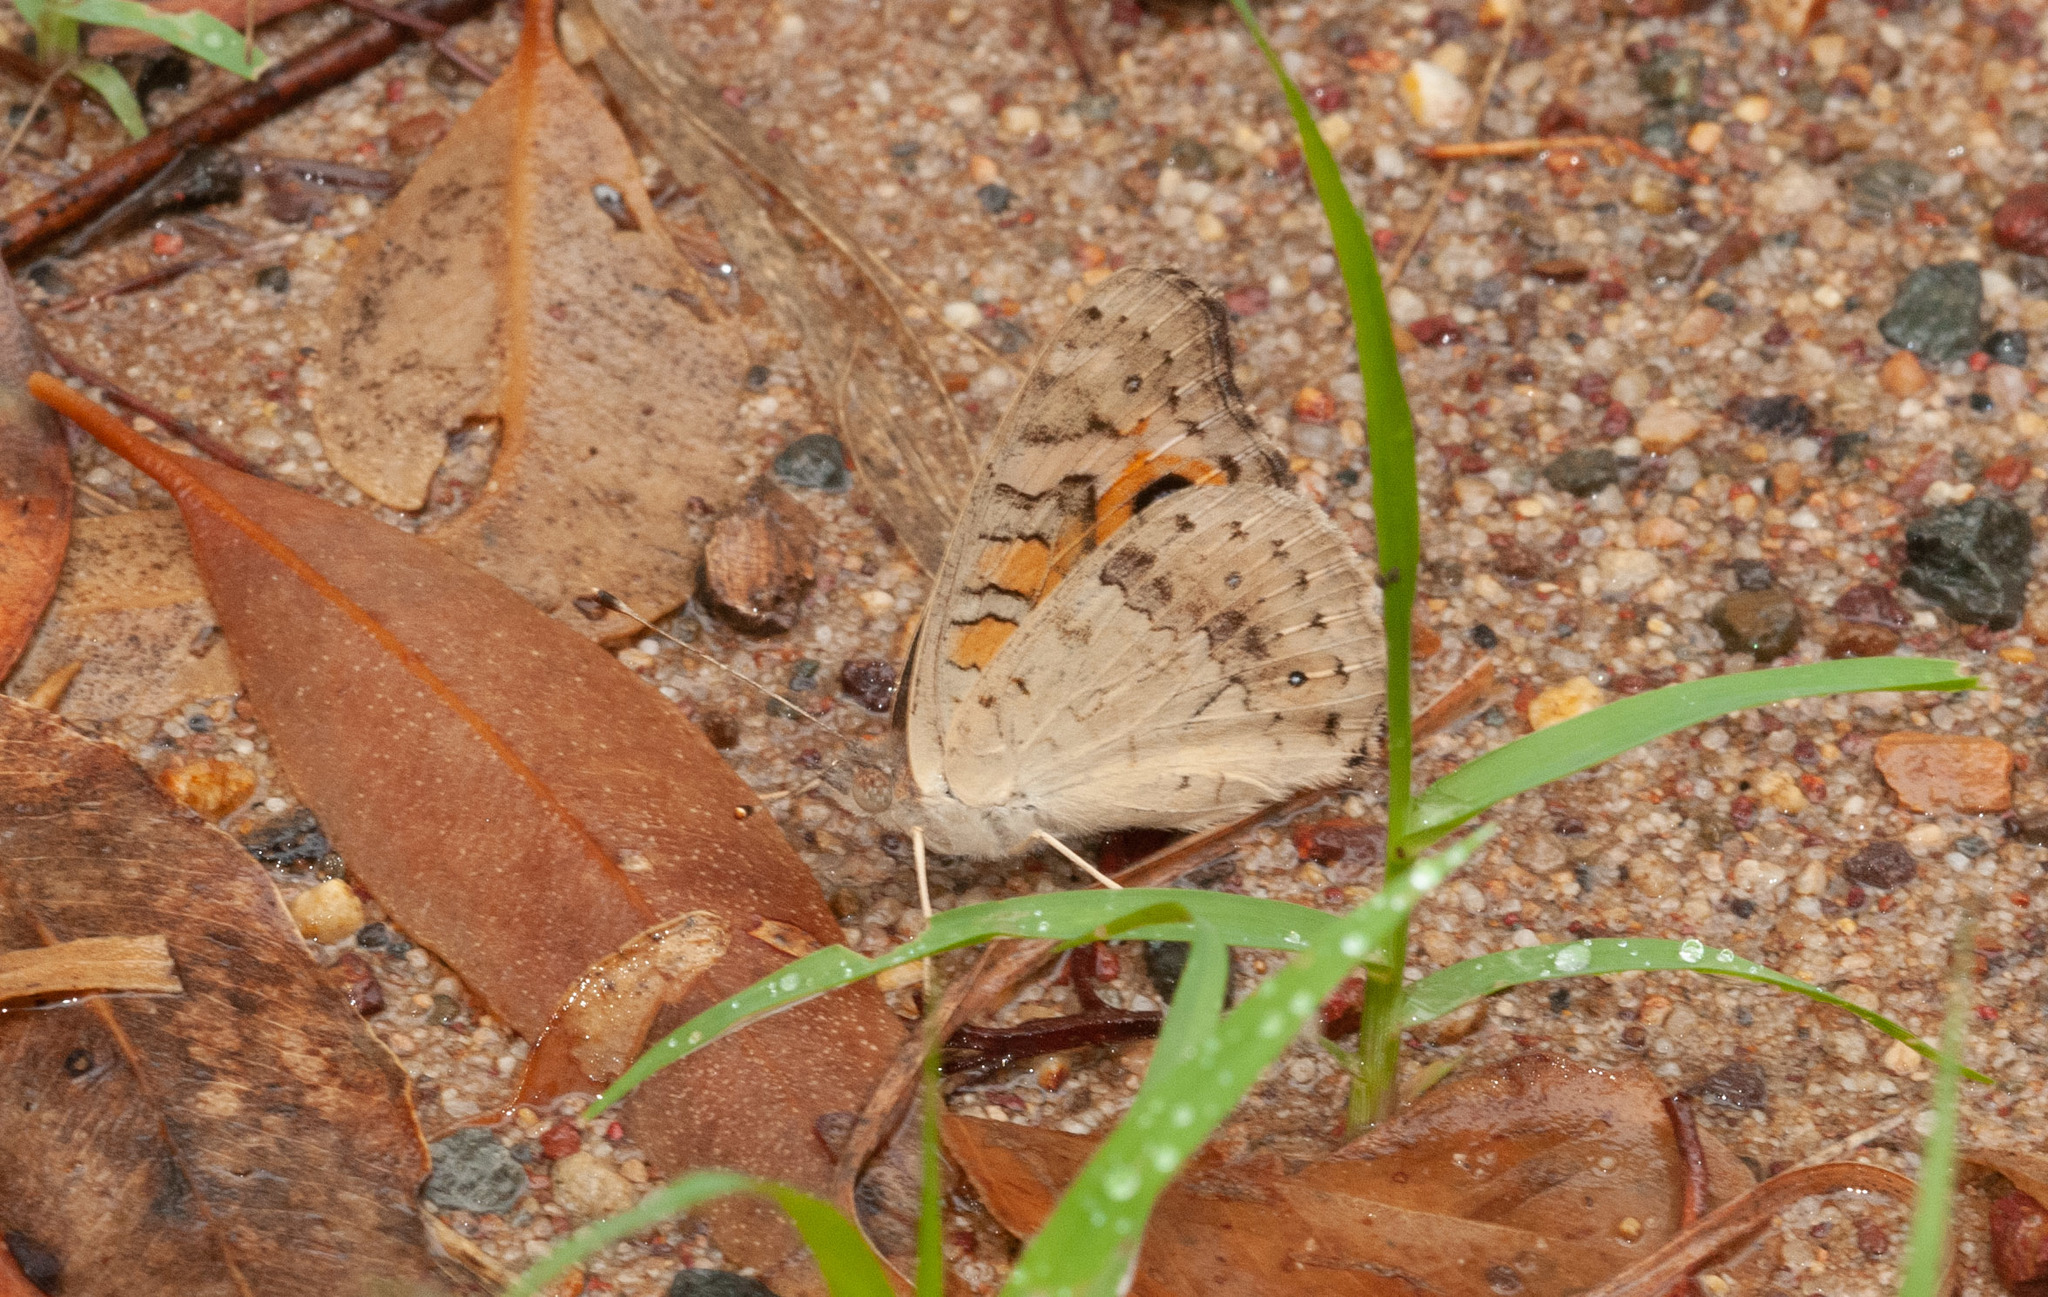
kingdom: Animalia
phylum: Arthropoda
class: Insecta
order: Lepidoptera
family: Nymphalidae
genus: Junonia
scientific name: Junonia villida
